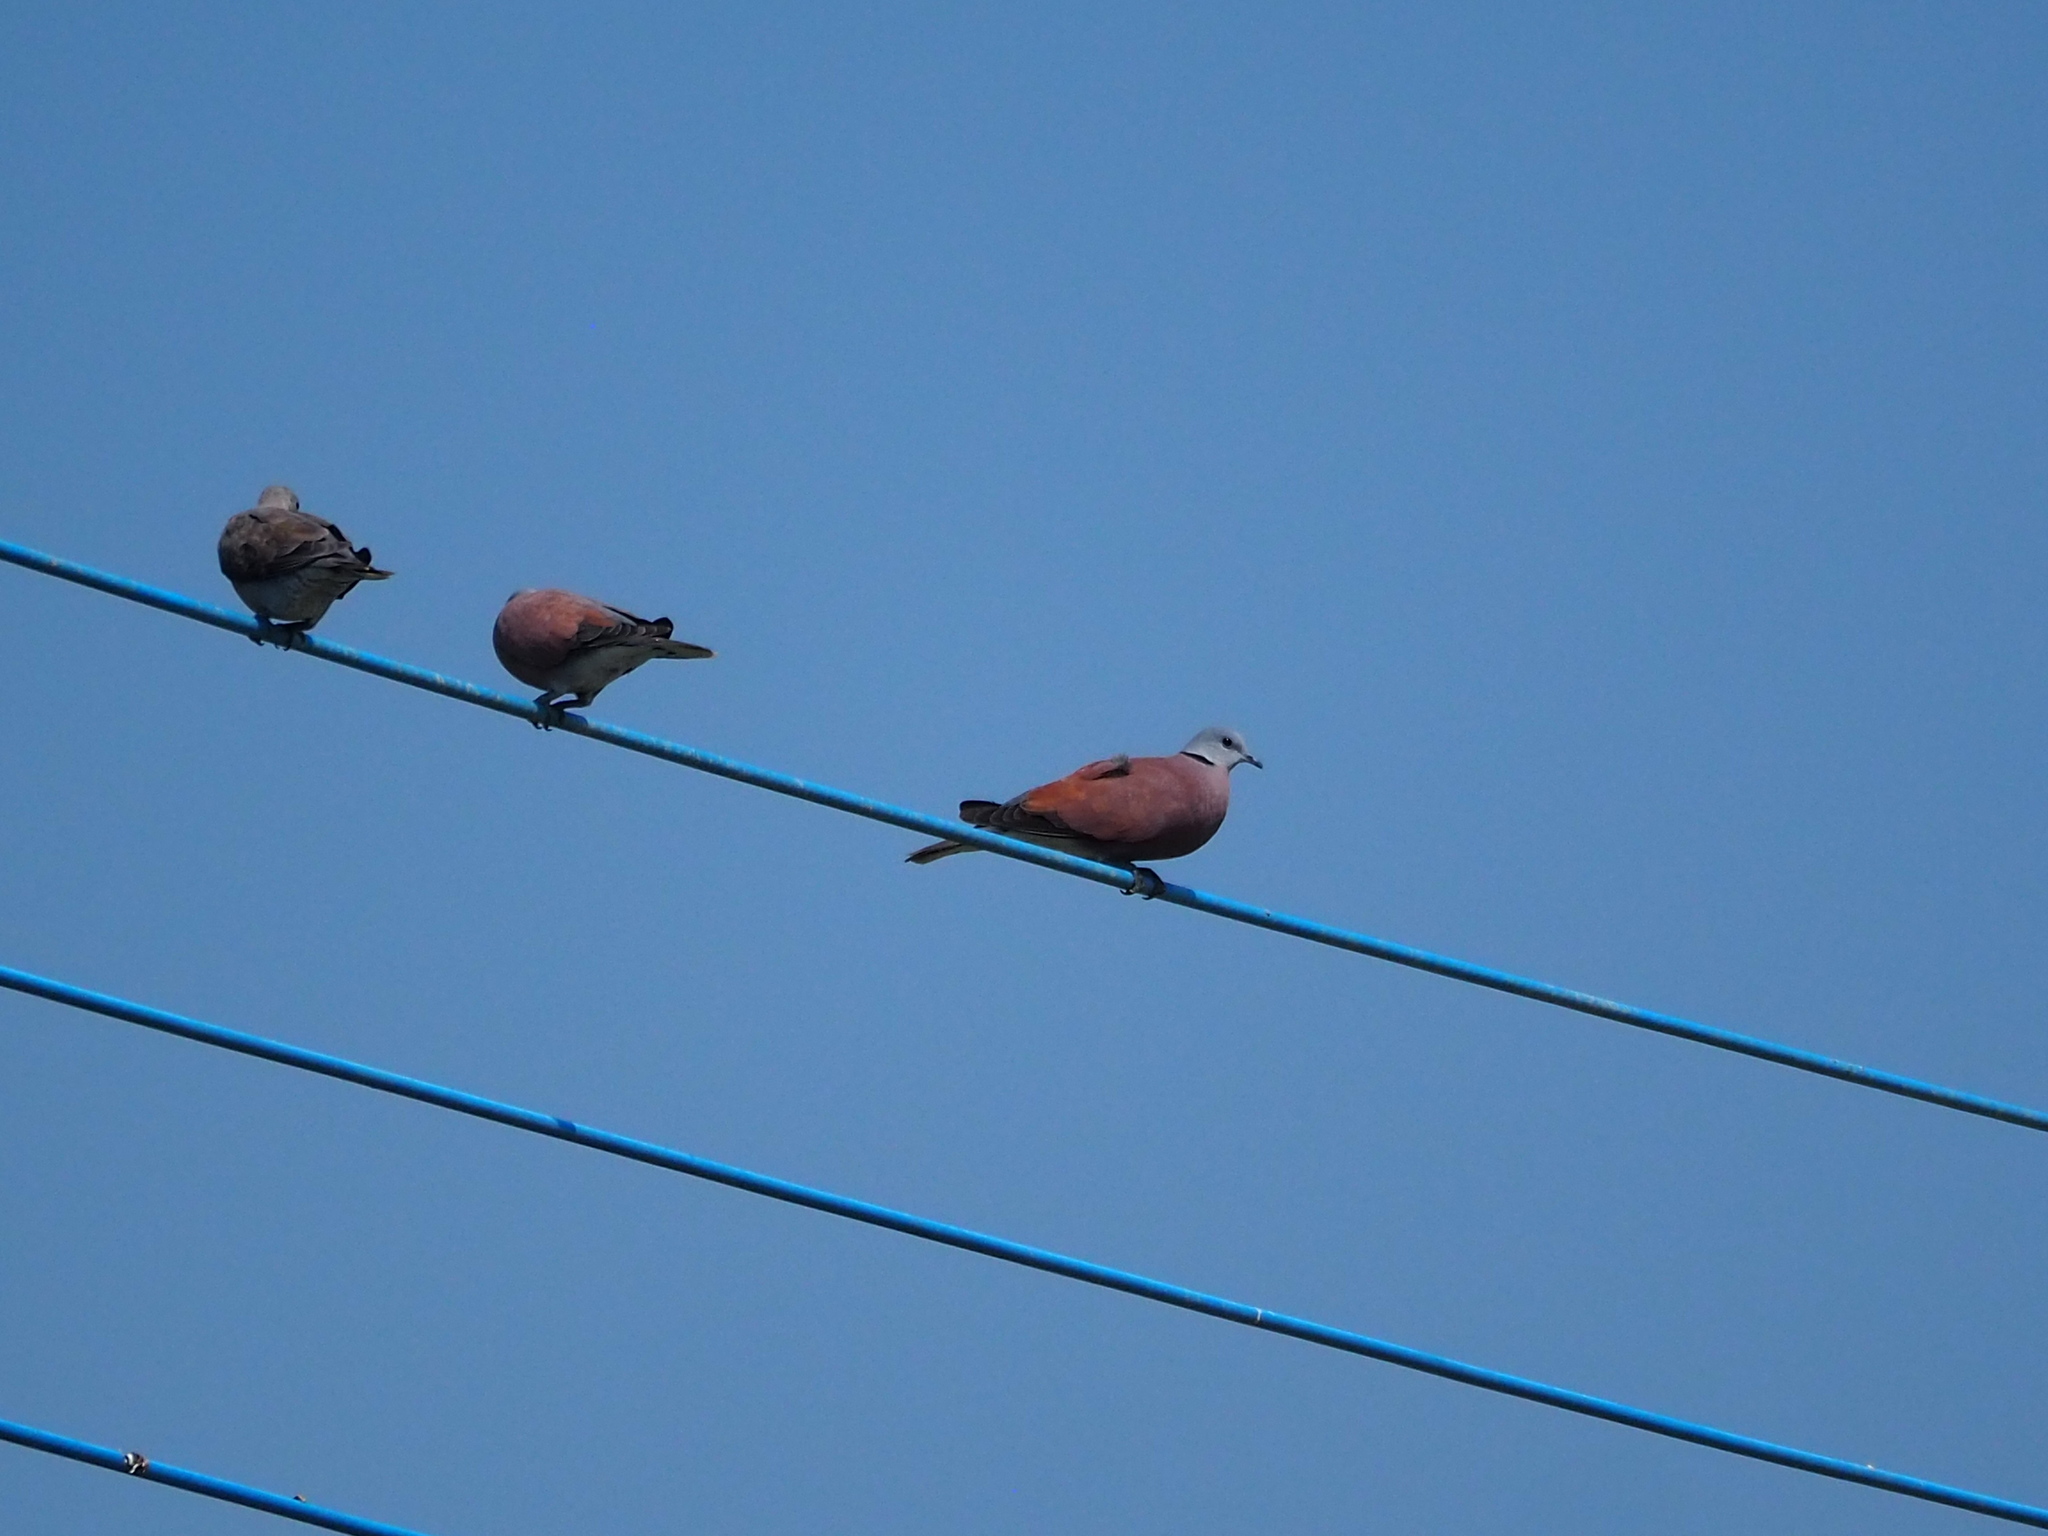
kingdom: Animalia
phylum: Chordata
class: Aves
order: Columbiformes
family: Columbidae
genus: Streptopelia
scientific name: Streptopelia tranquebarica
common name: Red turtle dove
